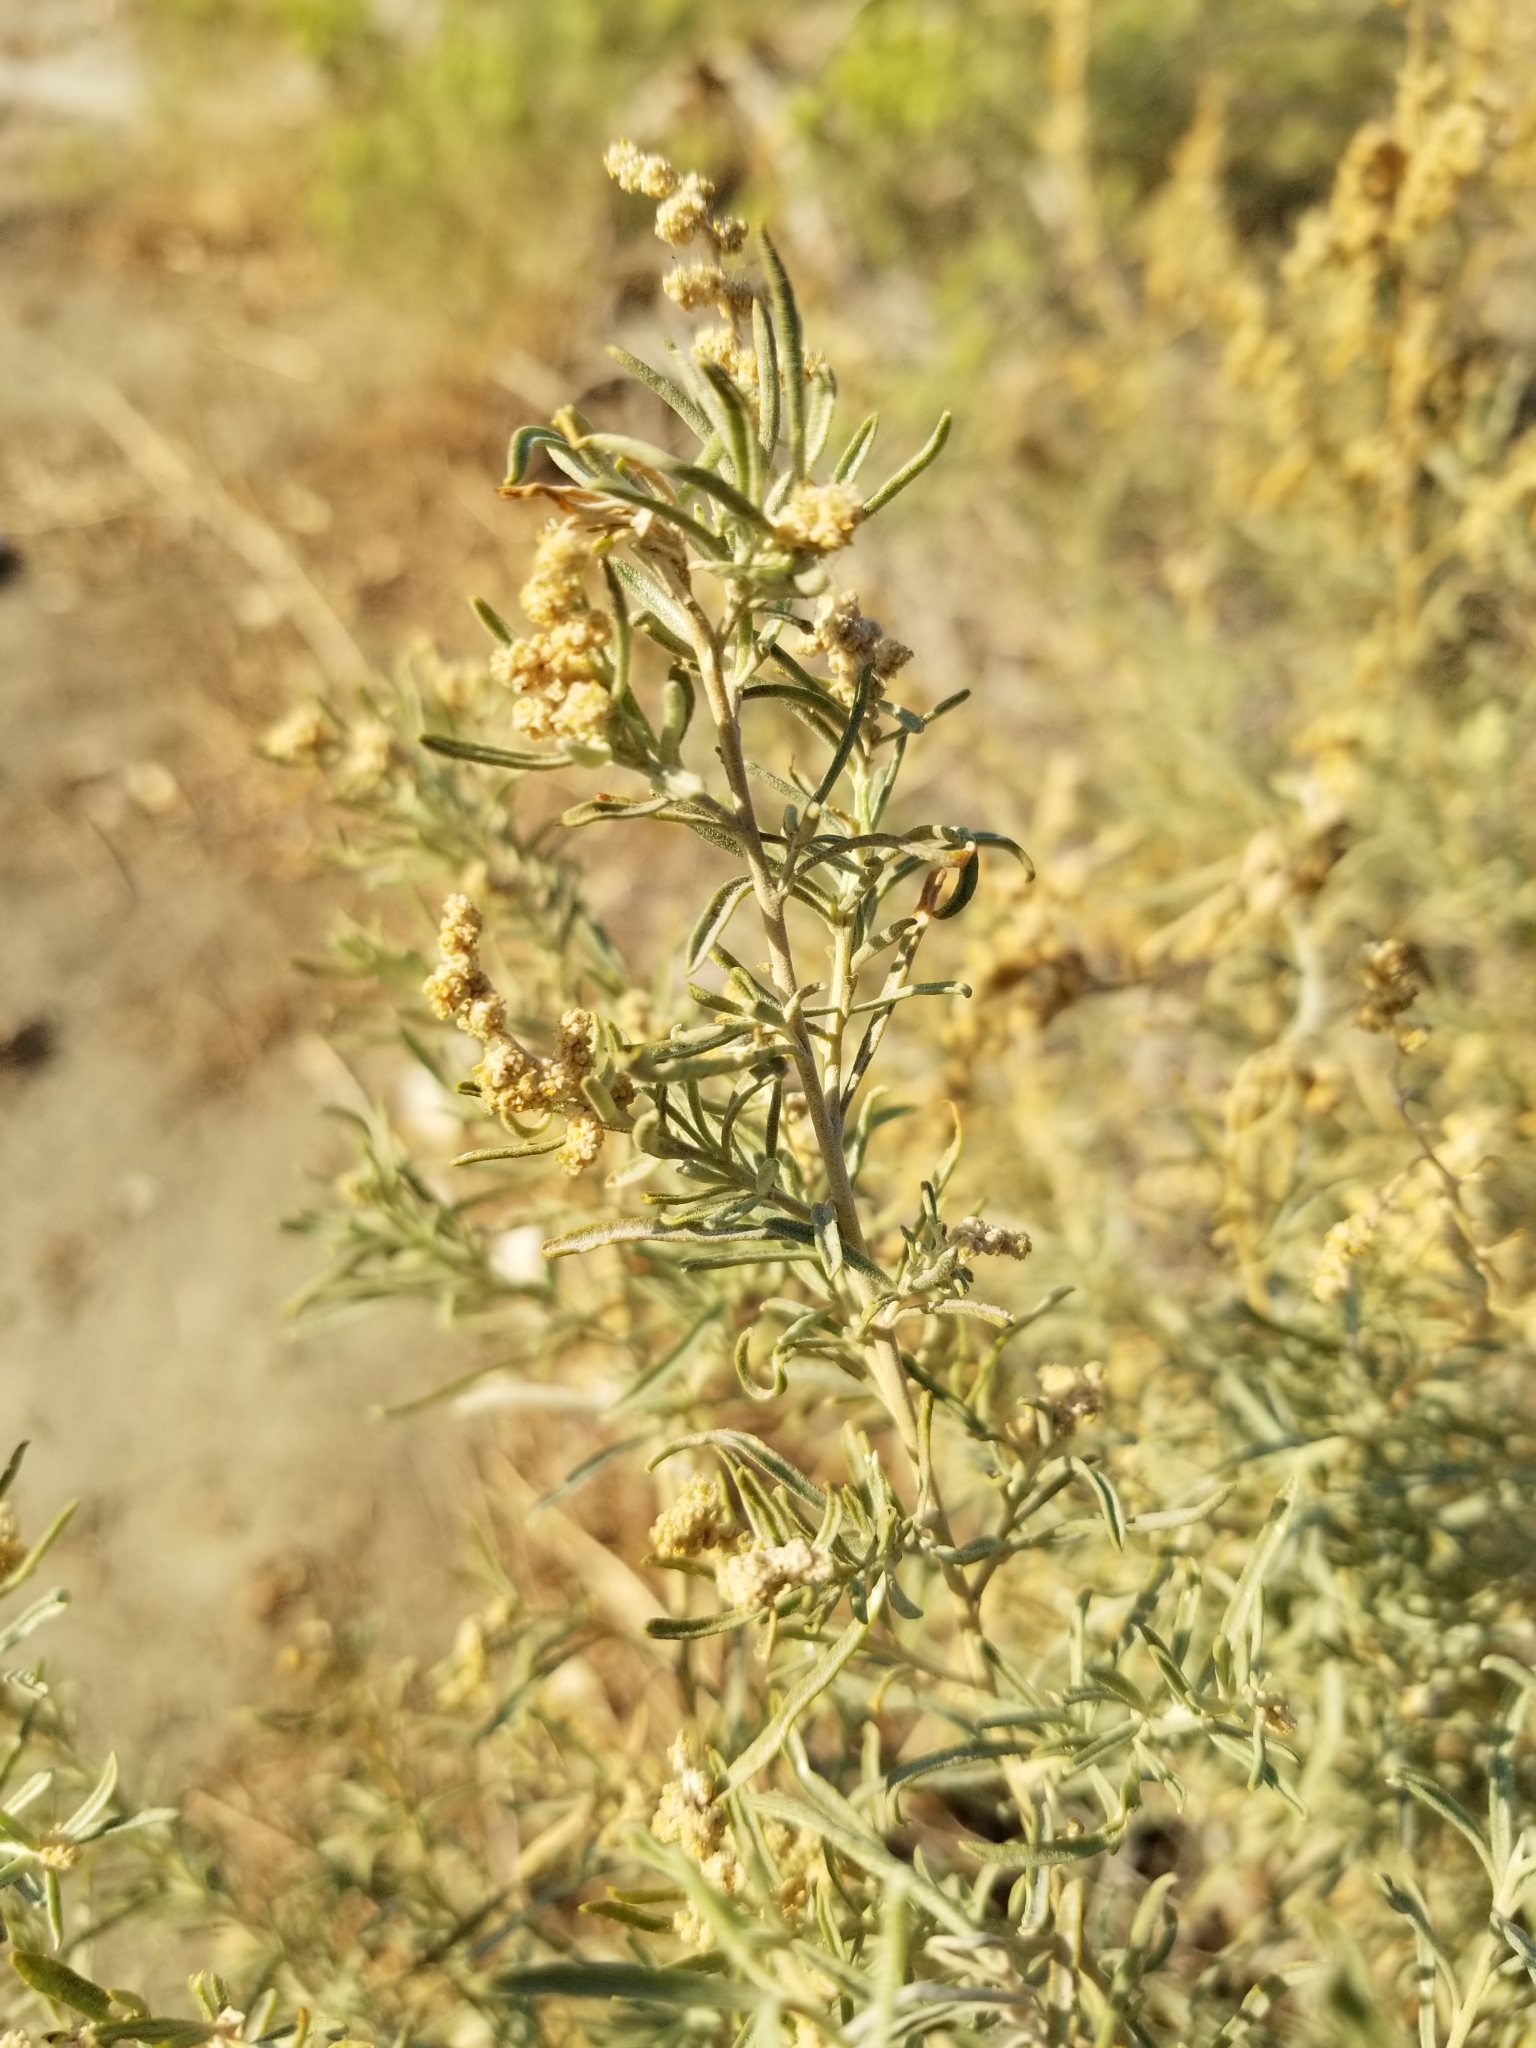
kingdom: Plantae
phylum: Tracheophyta
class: Magnoliopsida
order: Caryophyllales
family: Amaranthaceae
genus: Atriplex
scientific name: Atriplex canescens
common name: Four-wing saltbush
